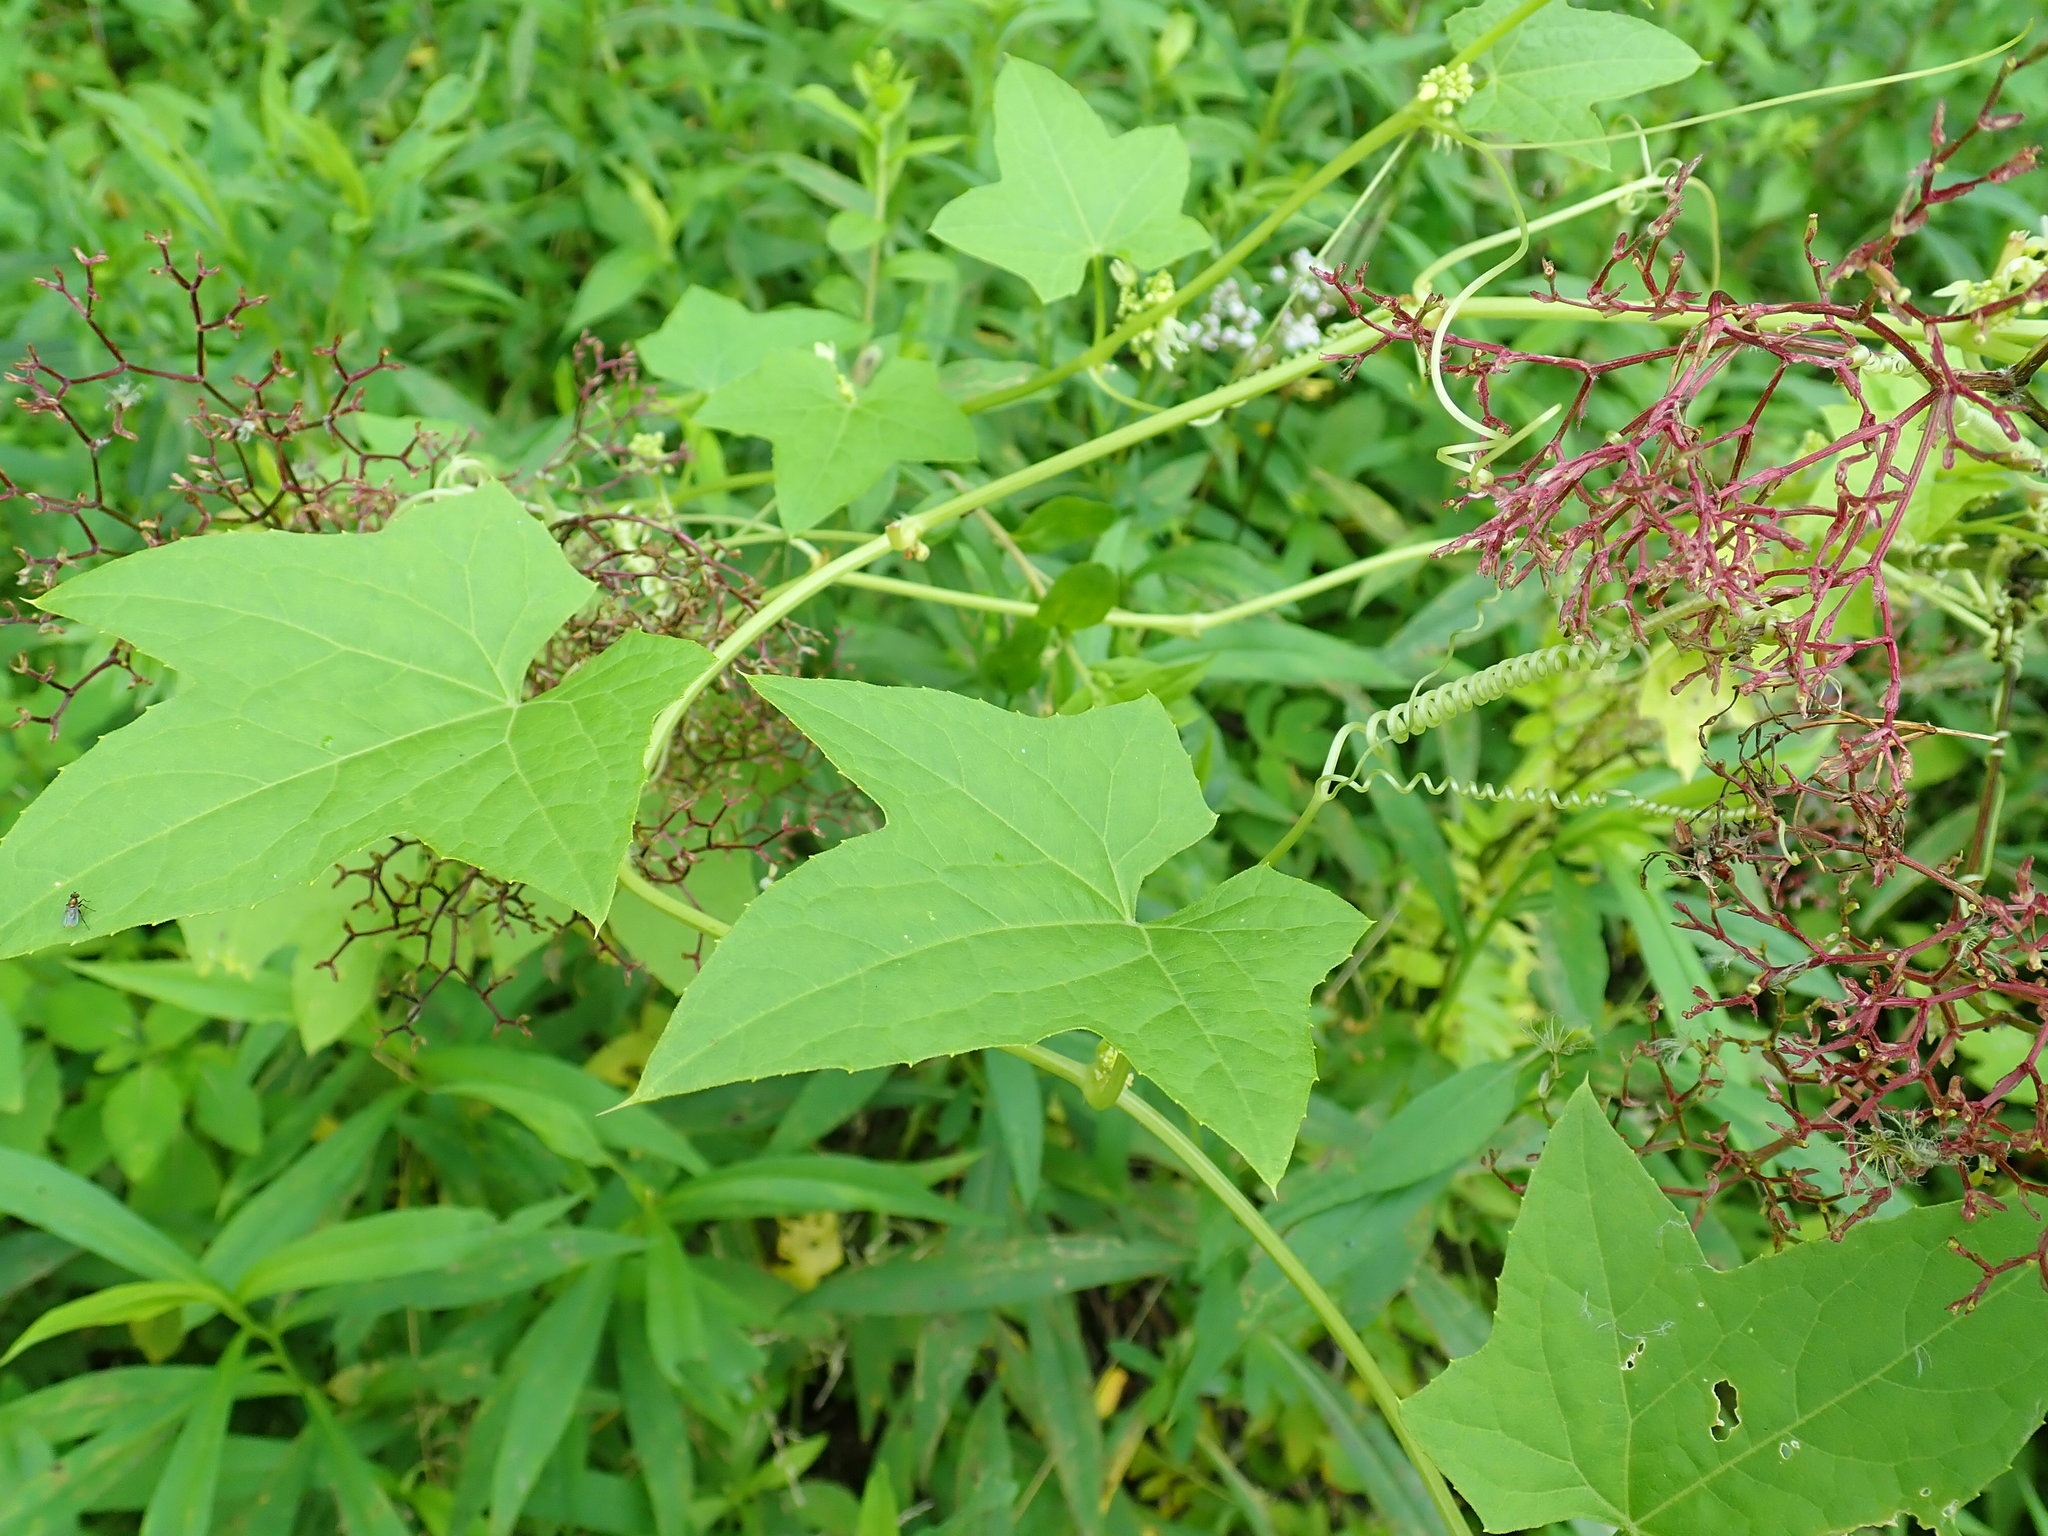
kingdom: Plantae
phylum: Tracheophyta
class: Magnoliopsida
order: Cucurbitales
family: Cucurbitaceae
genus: Echinocystis
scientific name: Echinocystis lobata
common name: Wild cucumber
